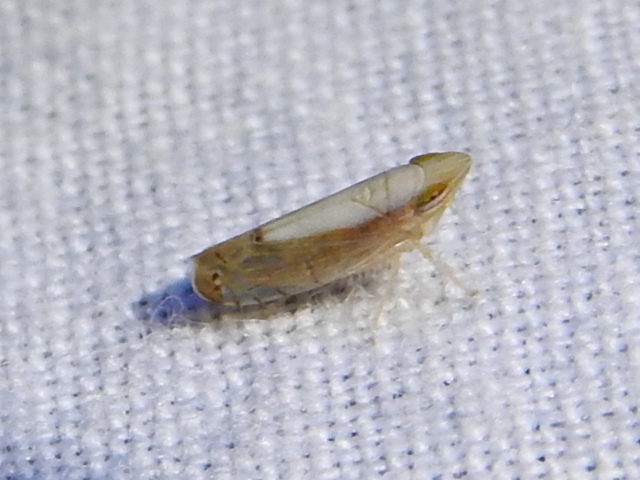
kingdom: Animalia
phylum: Arthropoda
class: Insecta
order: Hemiptera
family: Cicadellidae
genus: Scaphytopius
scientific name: Scaphytopius elegans
